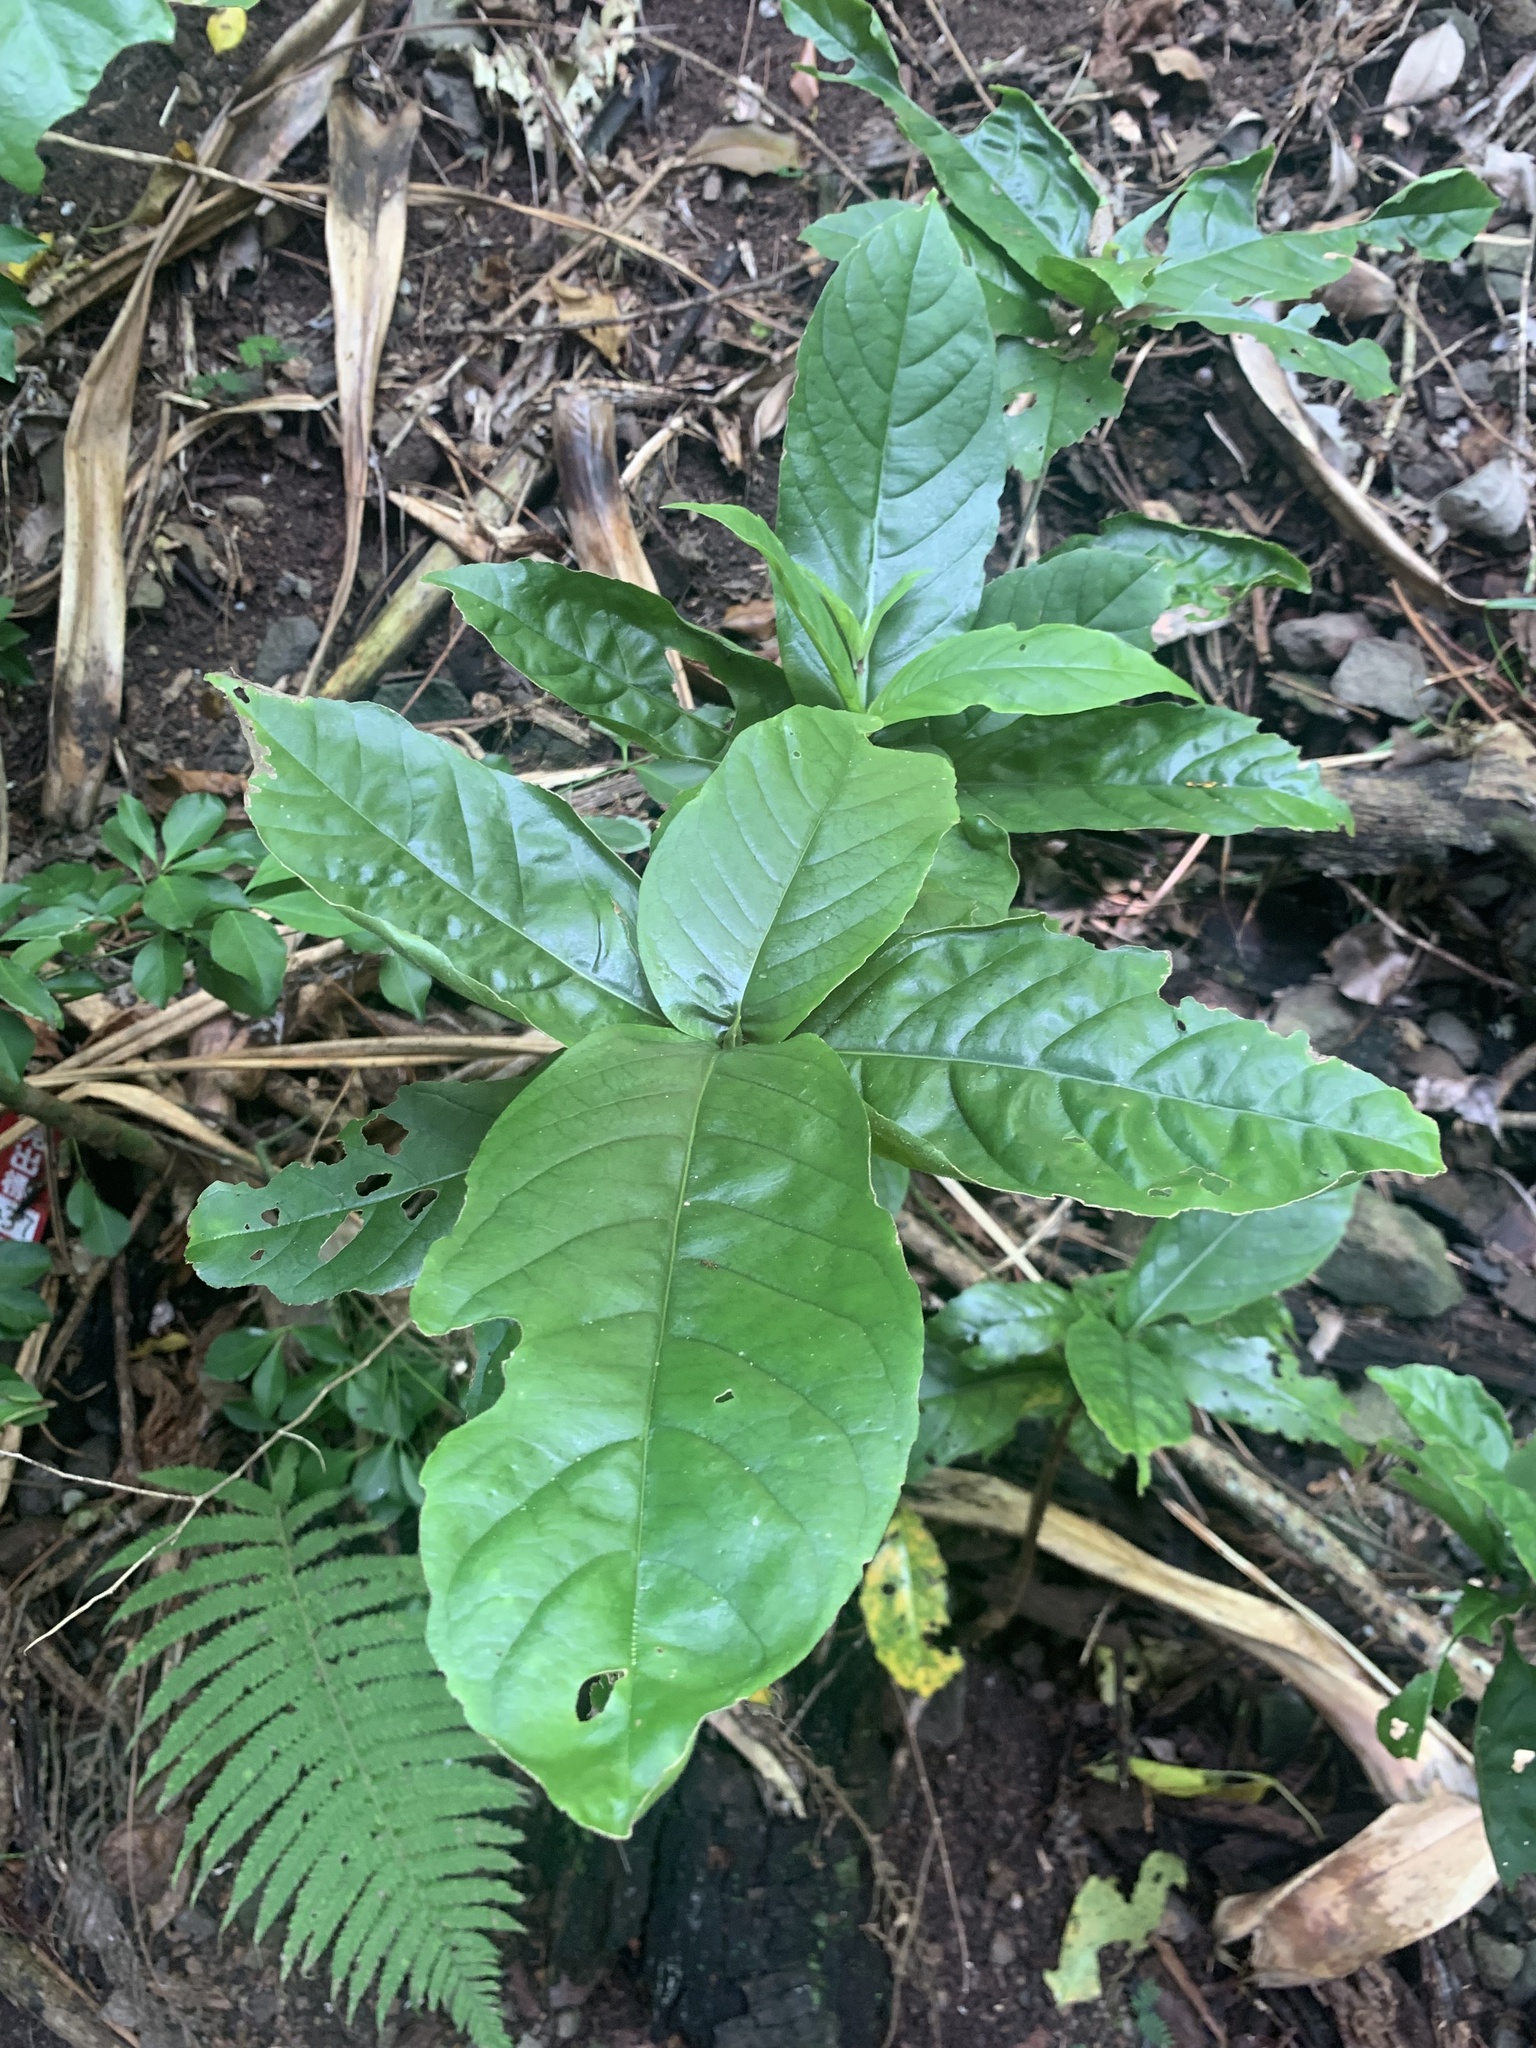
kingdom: Plantae
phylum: Tracheophyta
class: Magnoliopsida
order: Gentianales
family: Rubiaceae
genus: Tarenna
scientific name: Tarenna subsessilis
